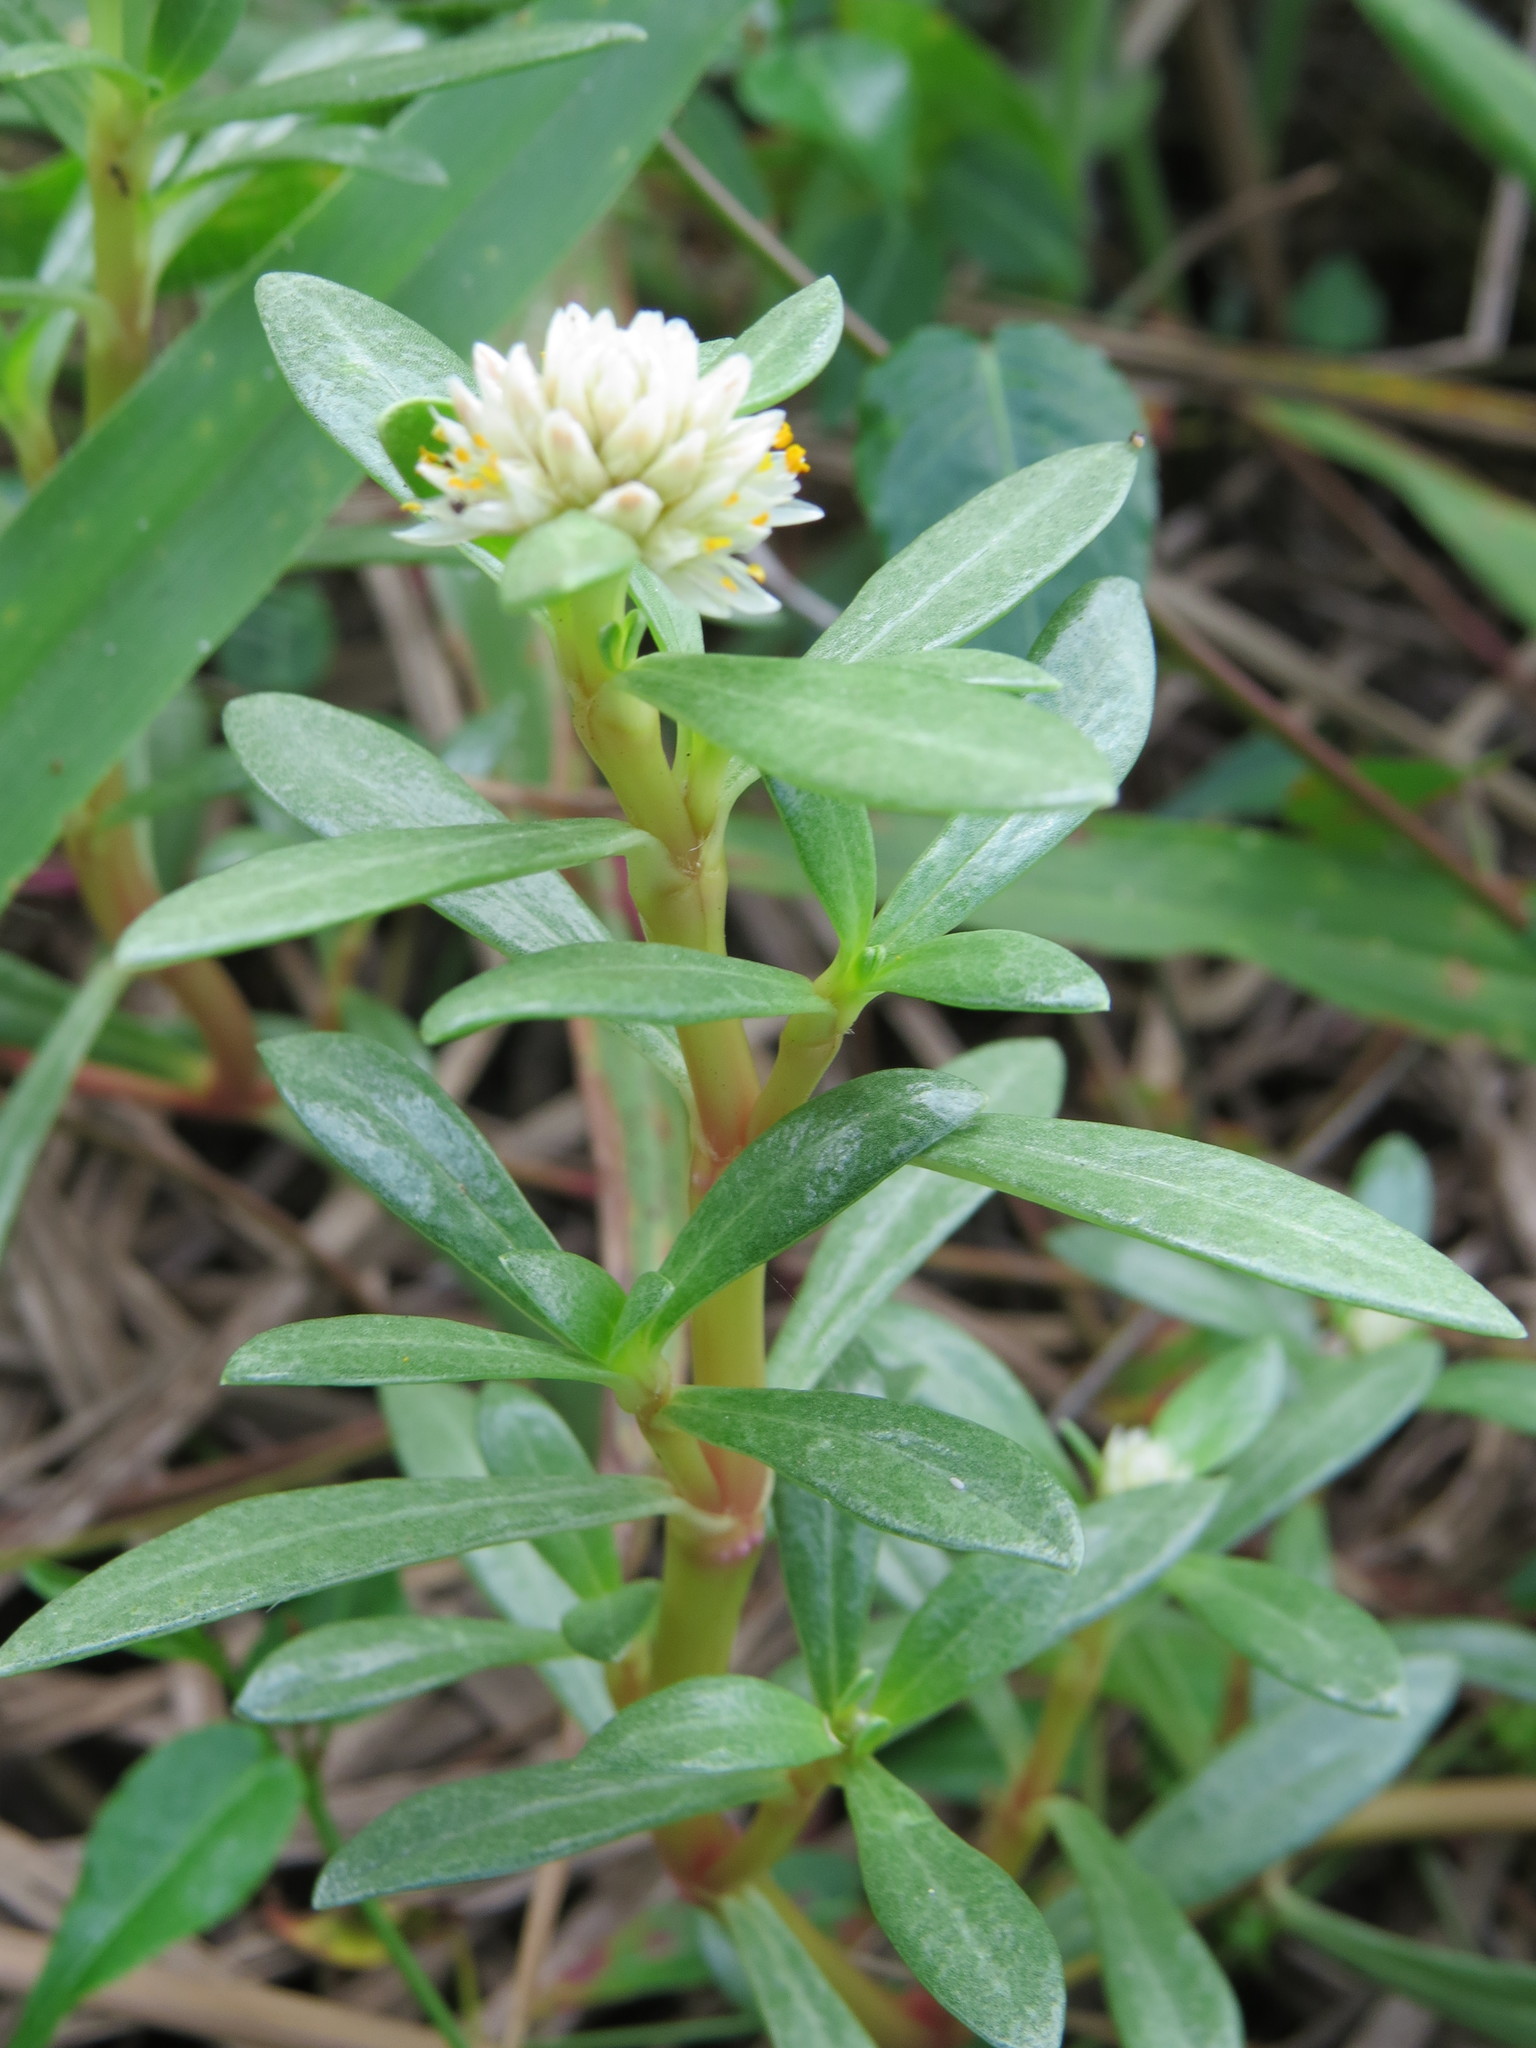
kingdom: Plantae
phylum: Tracheophyta
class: Magnoliopsida
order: Caryophyllales
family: Amaranthaceae
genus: Gomphrena
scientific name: Gomphrena portulacoides
